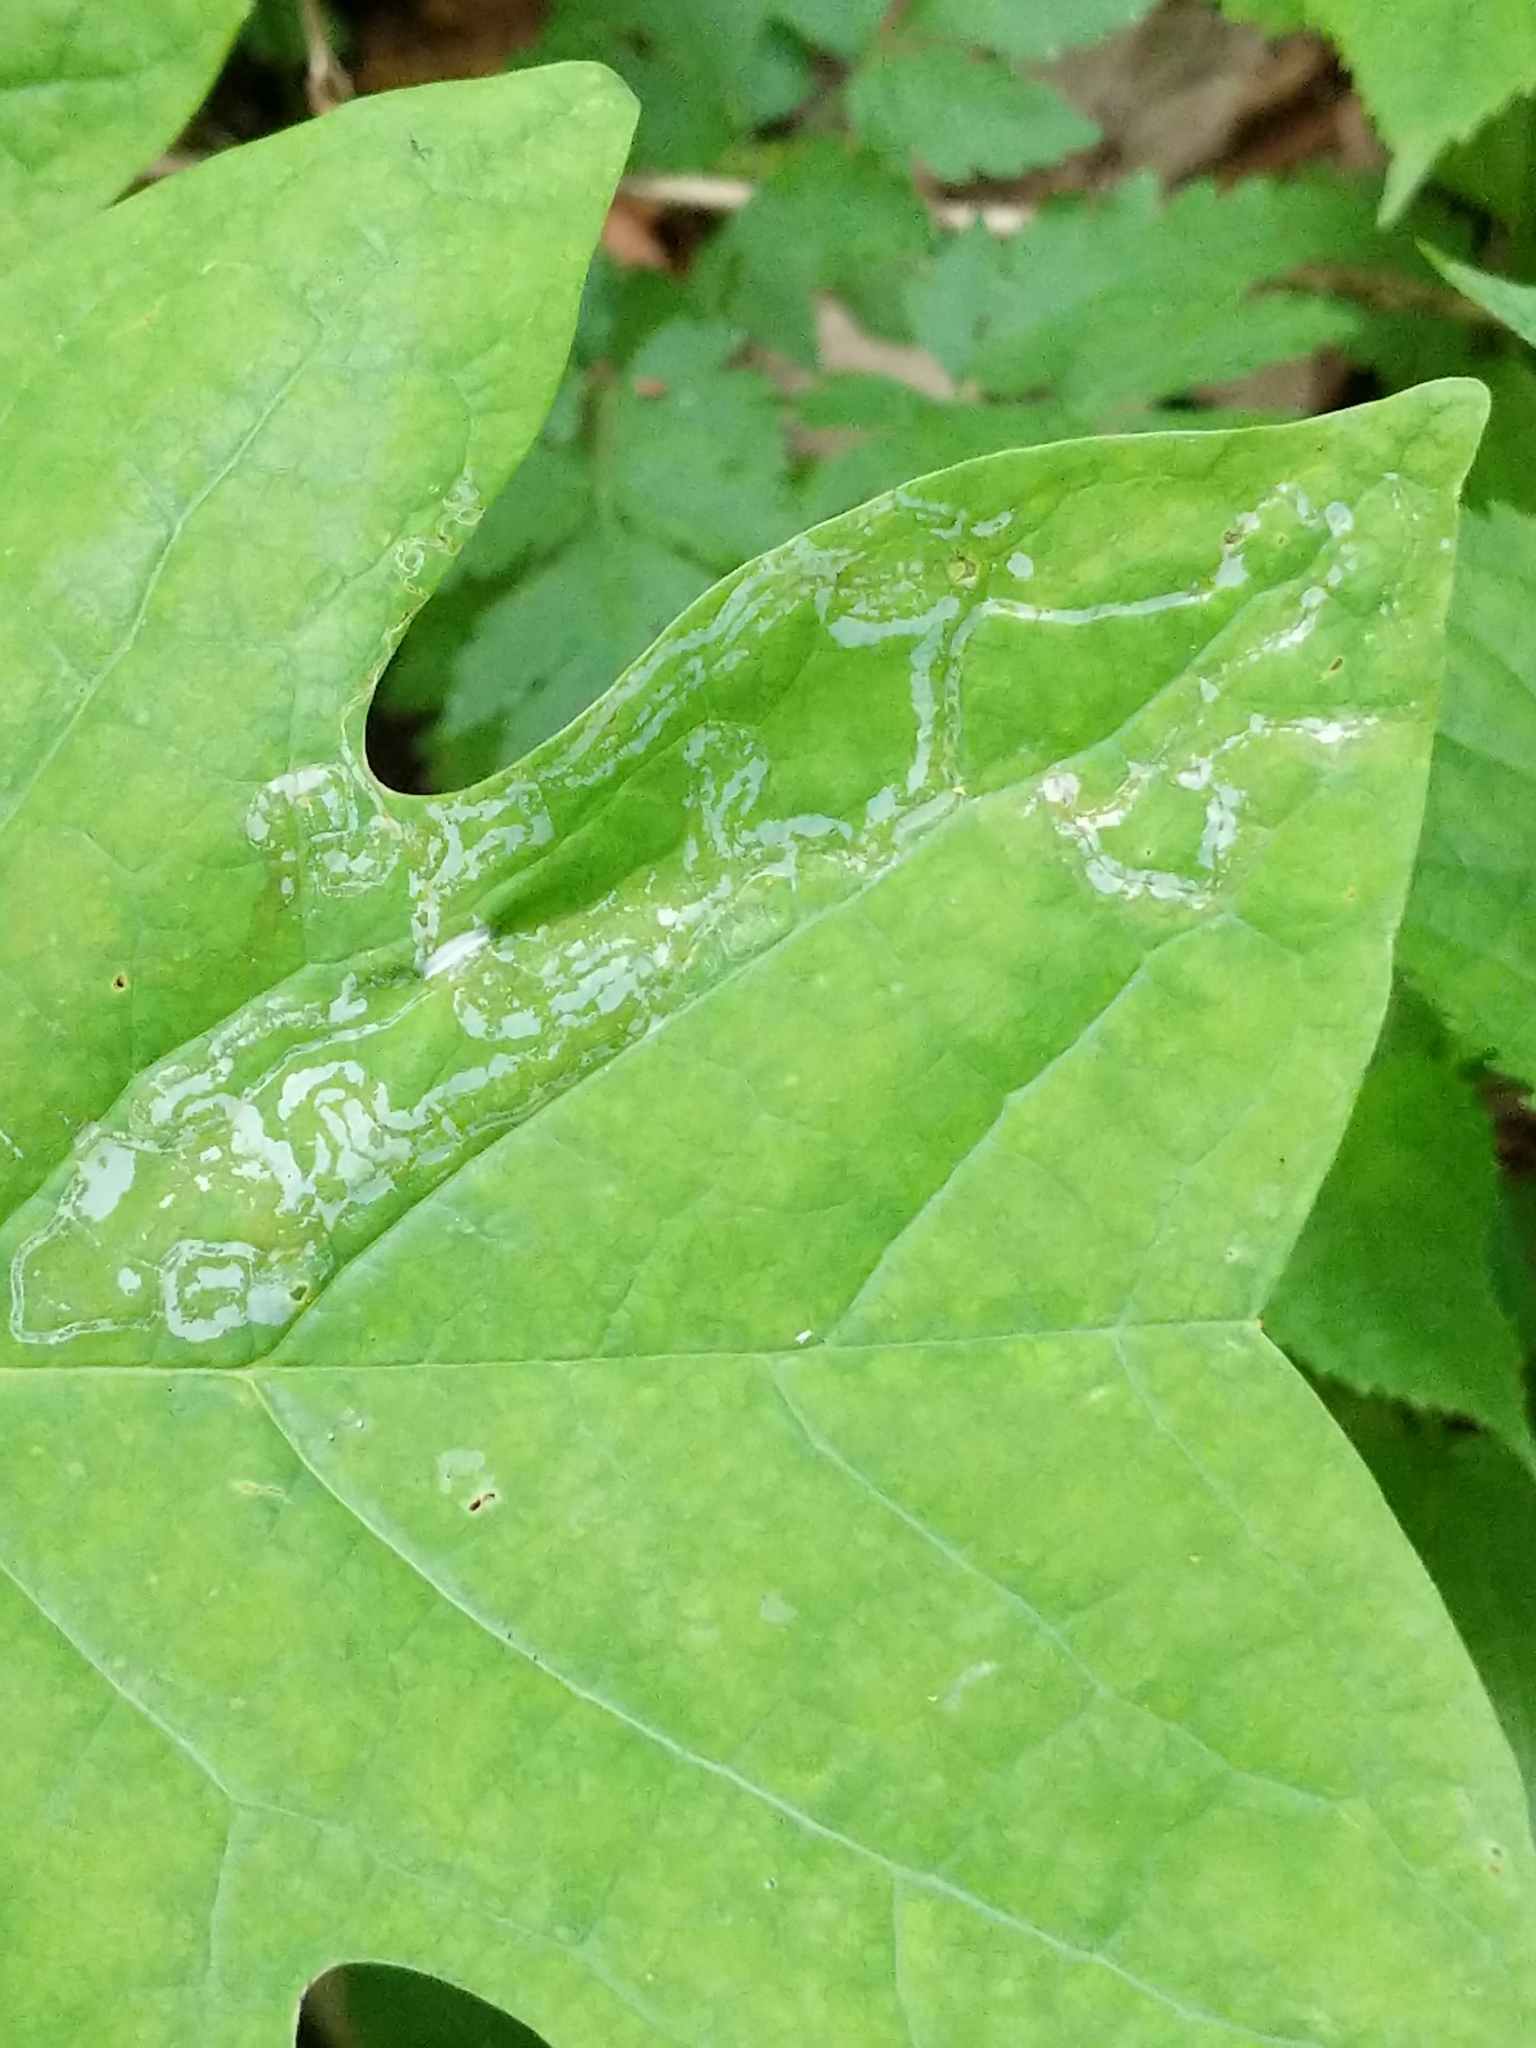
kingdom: Animalia
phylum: Arthropoda
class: Insecta
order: Lepidoptera
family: Gracillariidae
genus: Phyllocnistis
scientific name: Phyllocnistis liriodendronella
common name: Tulip tree leaf miner
